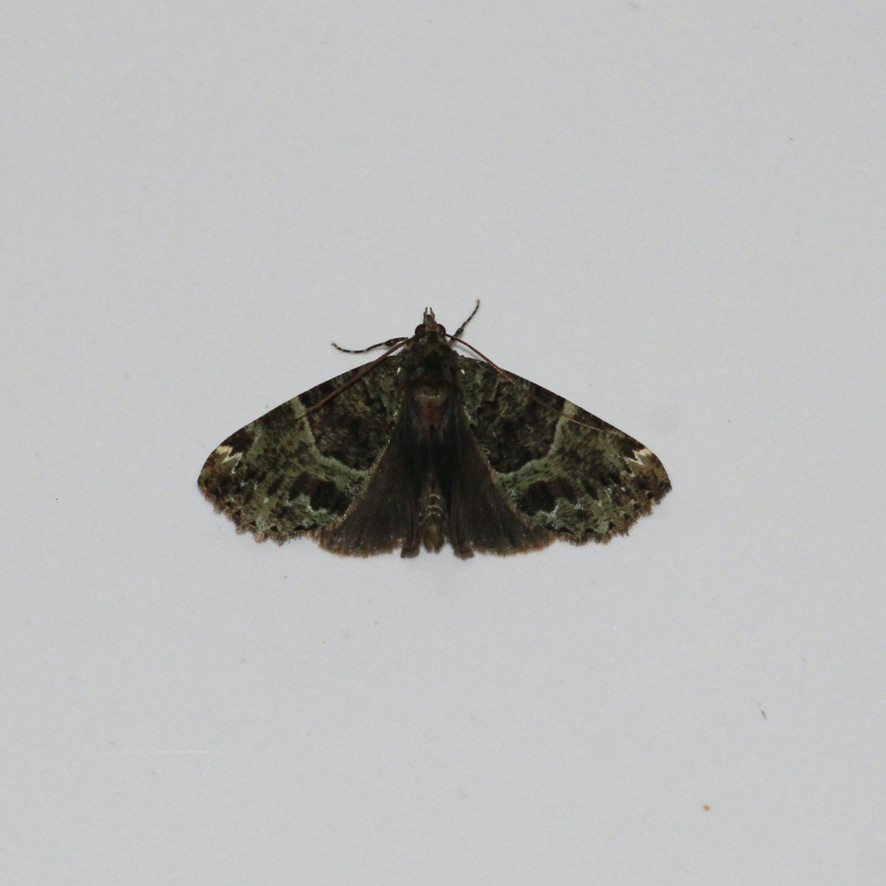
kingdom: Animalia
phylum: Arthropoda
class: Insecta
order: Lepidoptera
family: Geometridae
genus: Ischnopteris
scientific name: Ischnopteris bryifera
